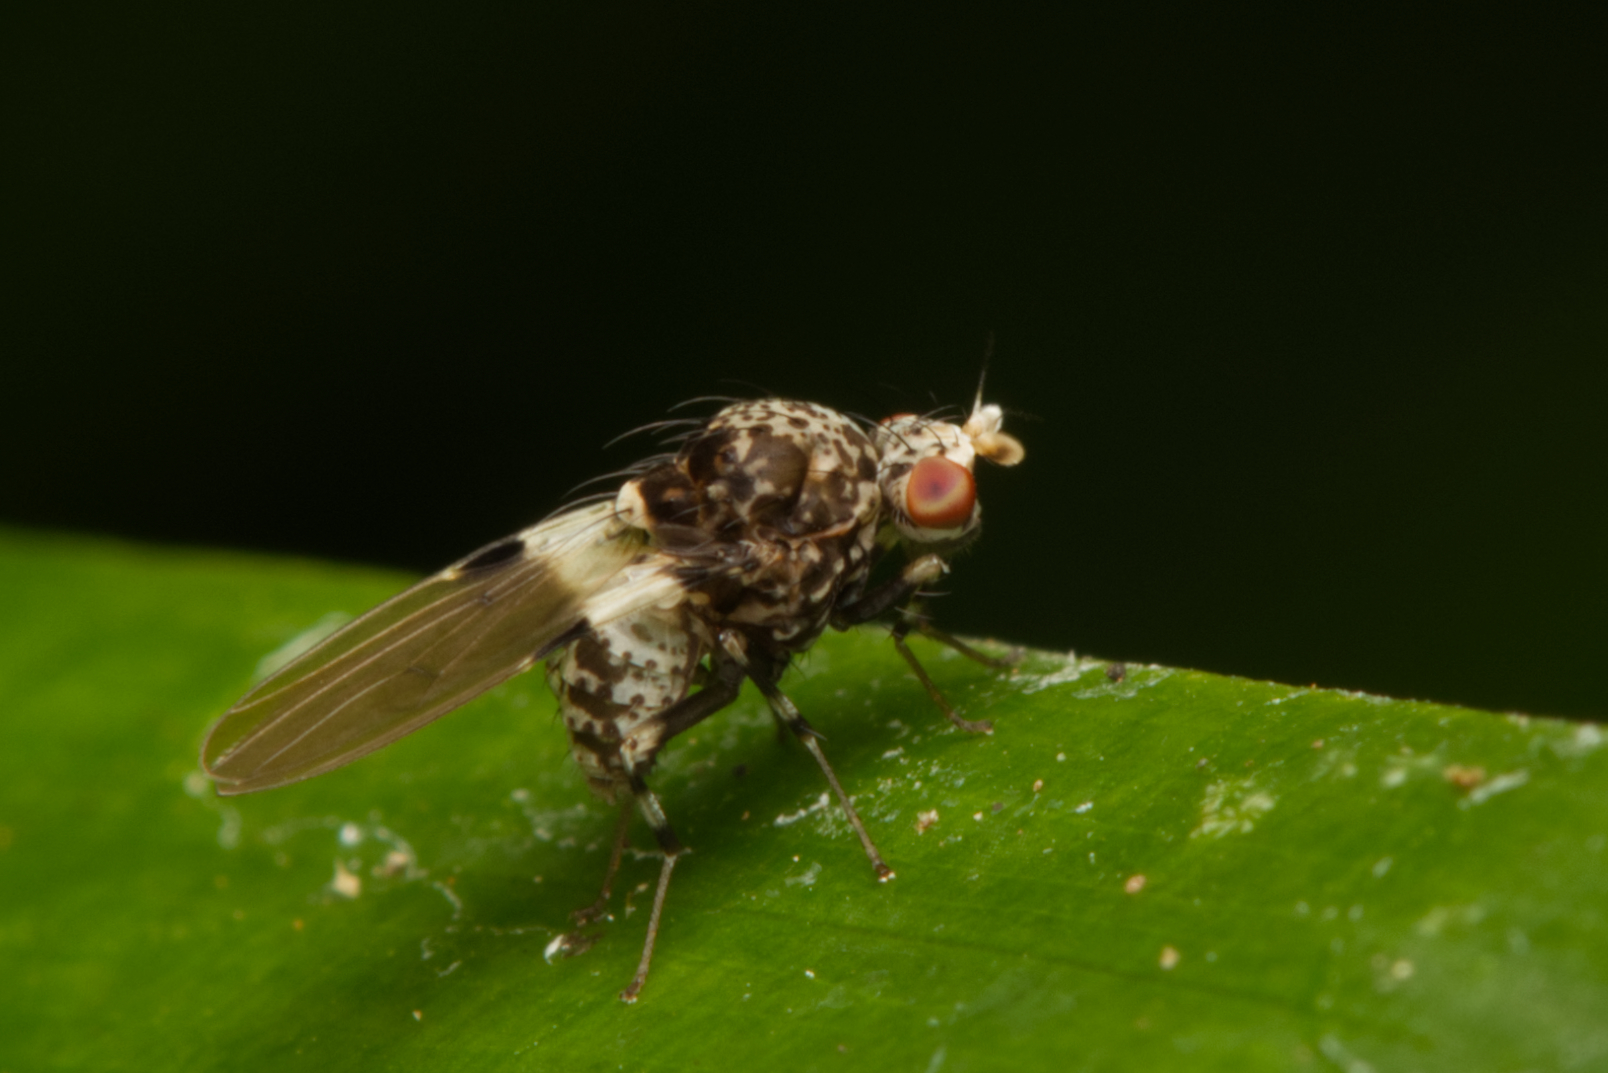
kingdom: Animalia
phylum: Arthropoda
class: Insecta
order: Diptera
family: Lauxaniidae
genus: Sapromyza
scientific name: Sapromyza pictigera
